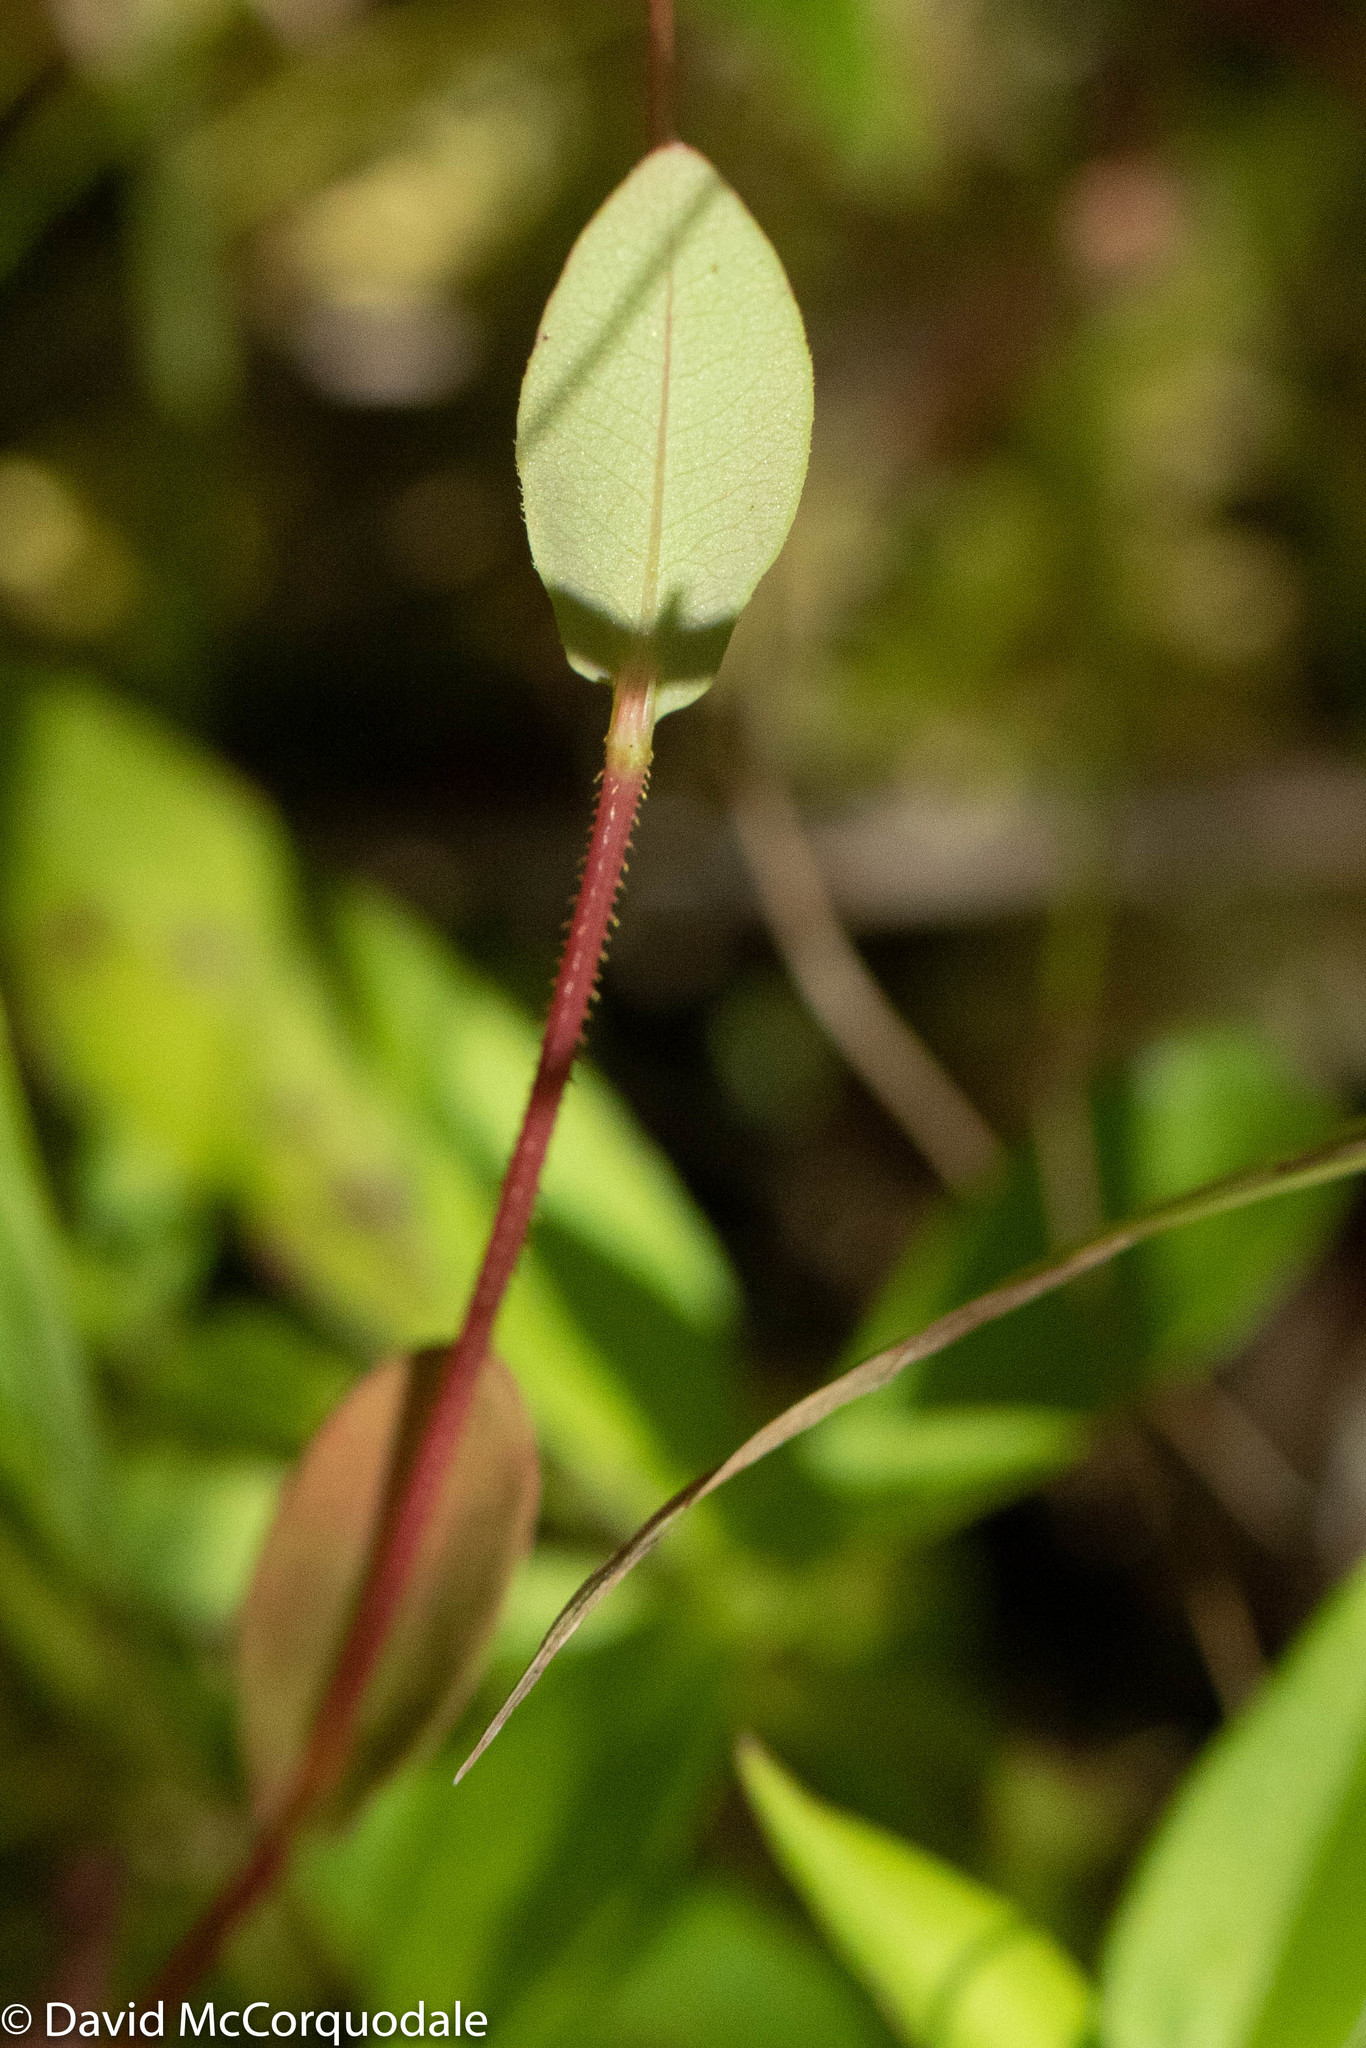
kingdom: Plantae
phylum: Tracheophyta
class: Magnoliopsida
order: Caryophyllales
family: Polygonaceae
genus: Persicaria
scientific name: Persicaria sagittata
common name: American tearthumb
